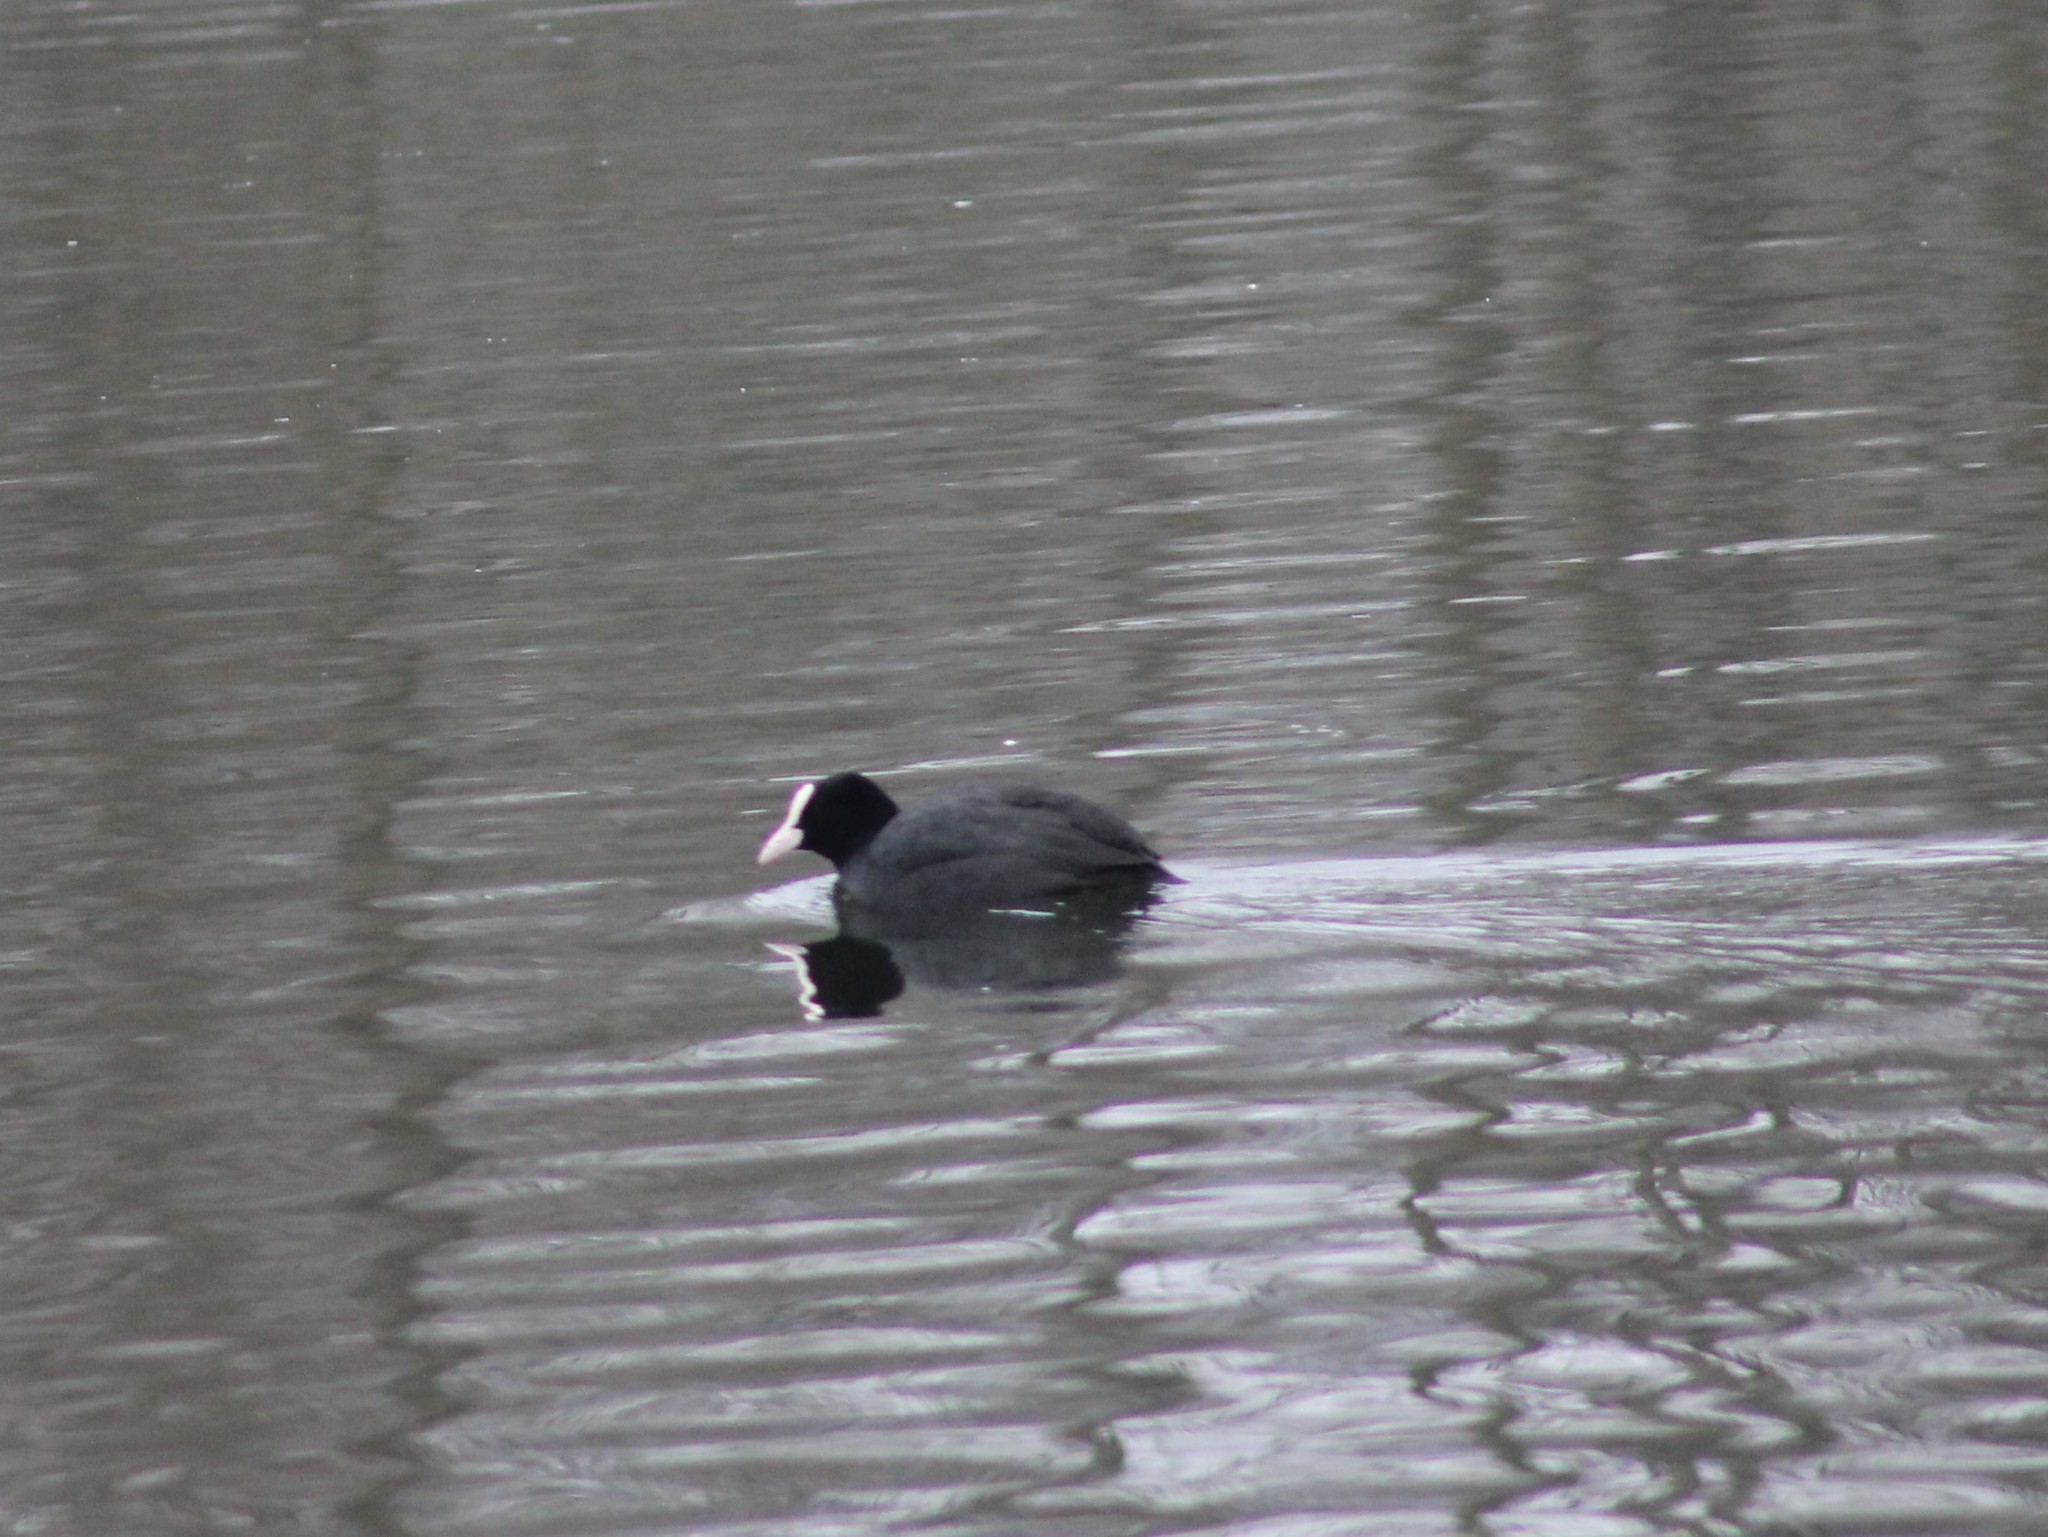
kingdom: Animalia
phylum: Chordata
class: Aves
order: Gruiformes
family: Rallidae
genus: Fulica
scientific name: Fulica atra
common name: Eurasian coot
